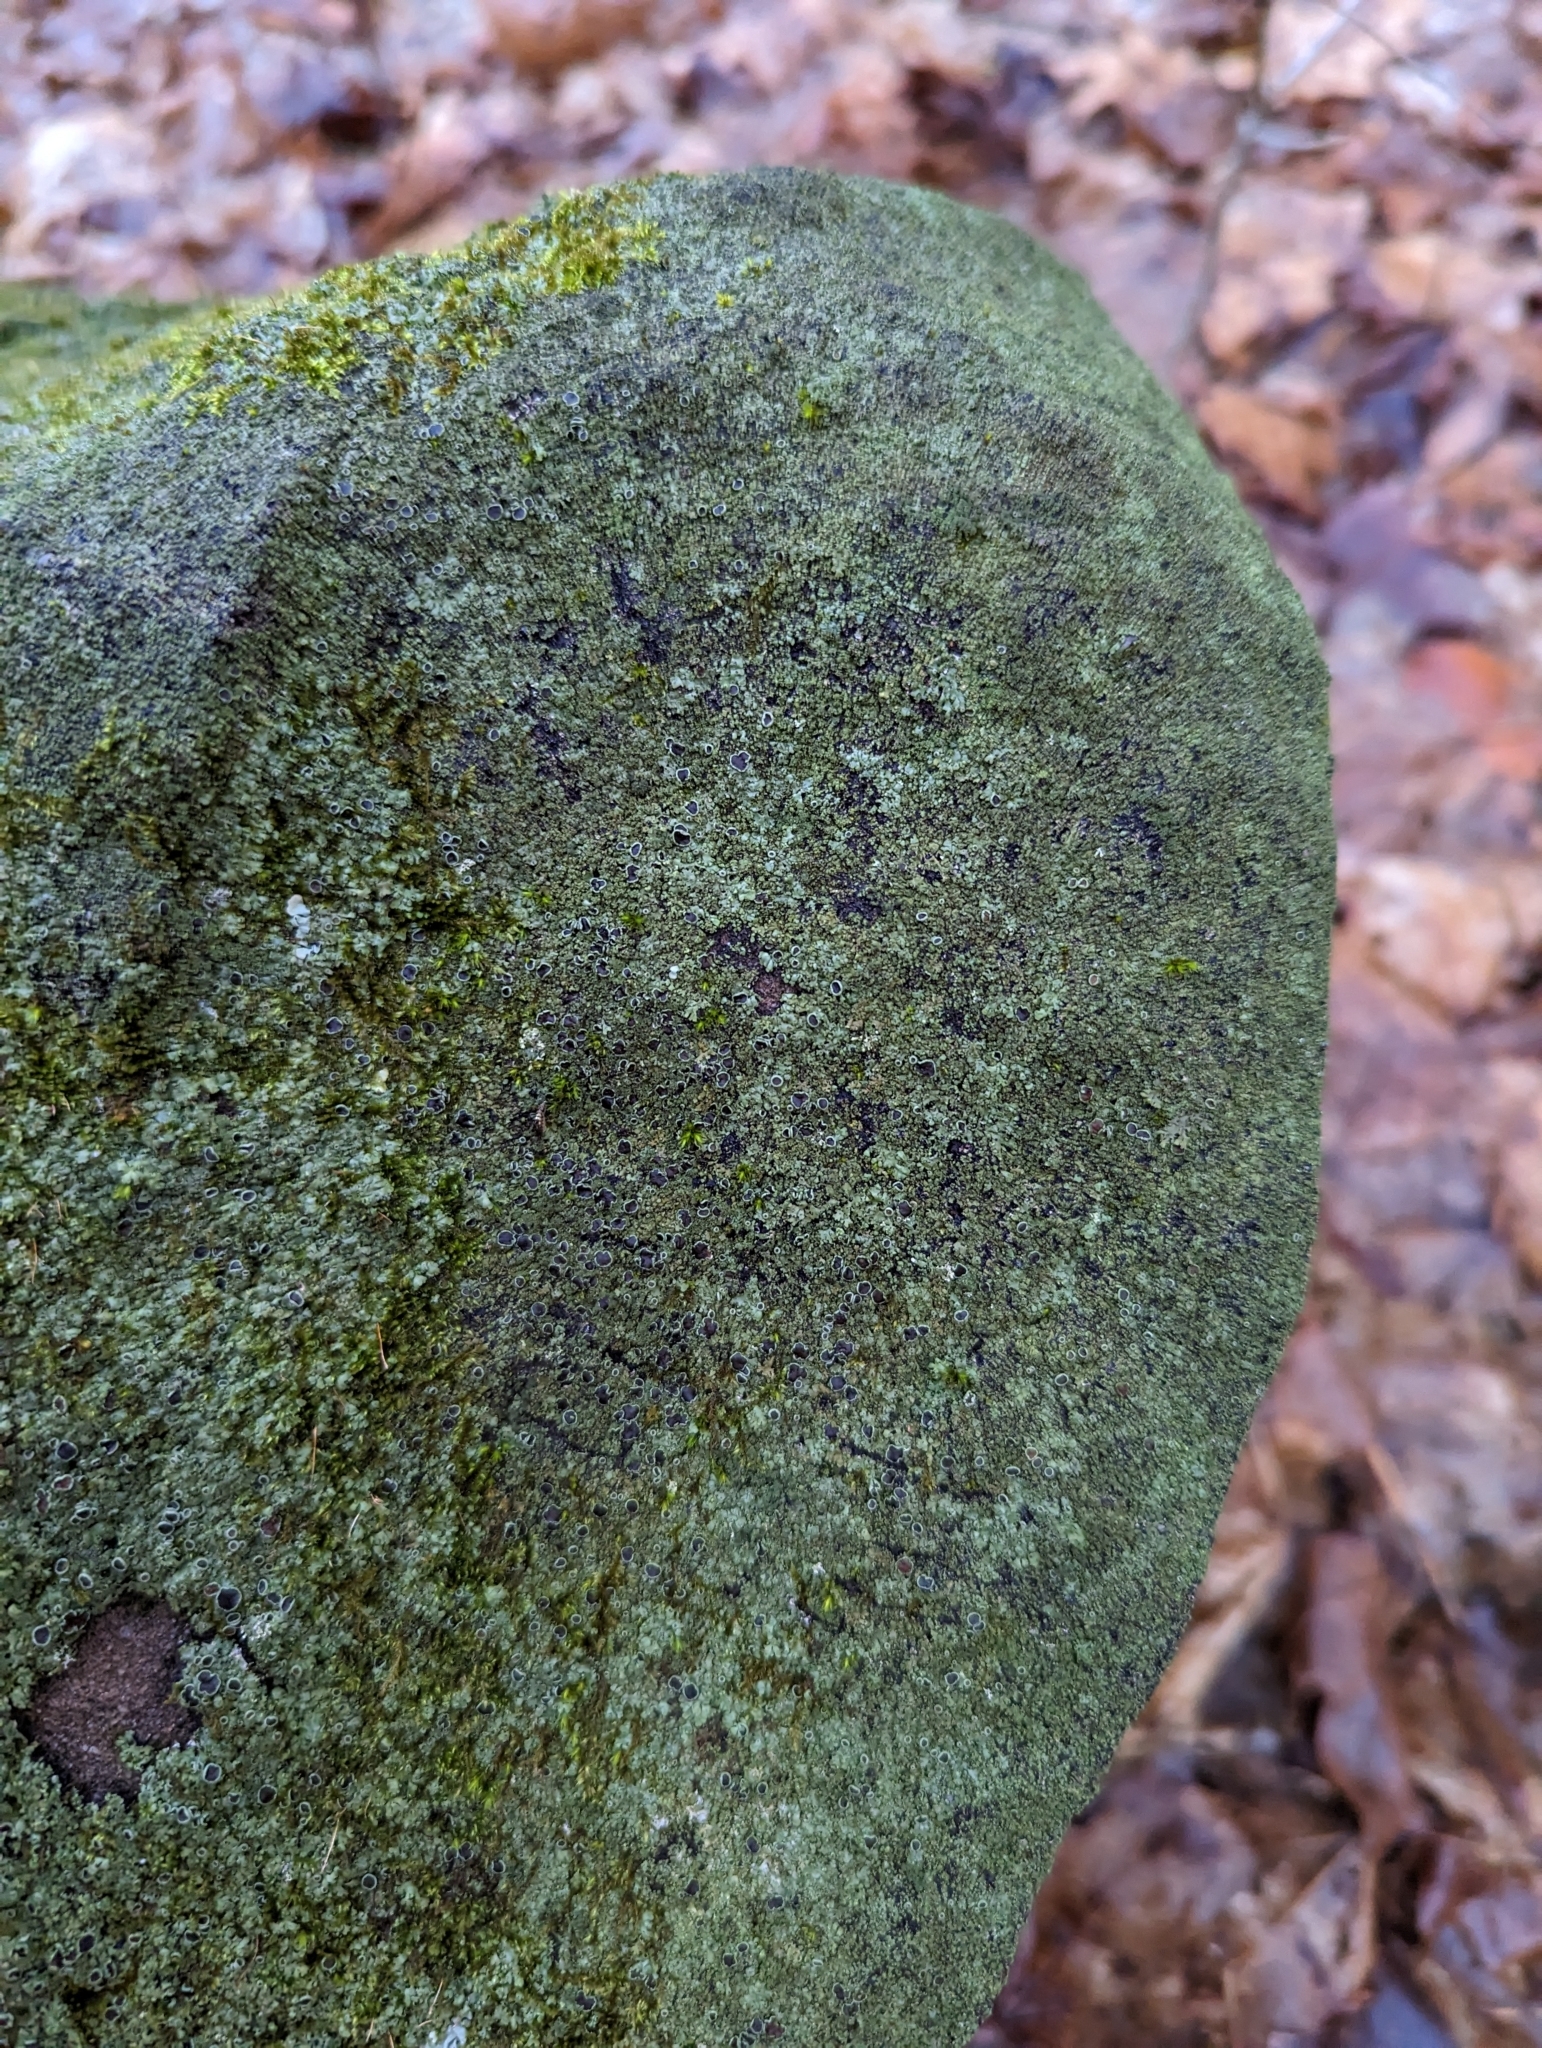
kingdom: Fungi
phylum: Ascomycota
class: Lecanoromycetes
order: Caliciales
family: Physciaceae
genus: Phaeophyscia
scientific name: Phaeophyscia adiastola
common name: Powder-tipped shadow lichen
